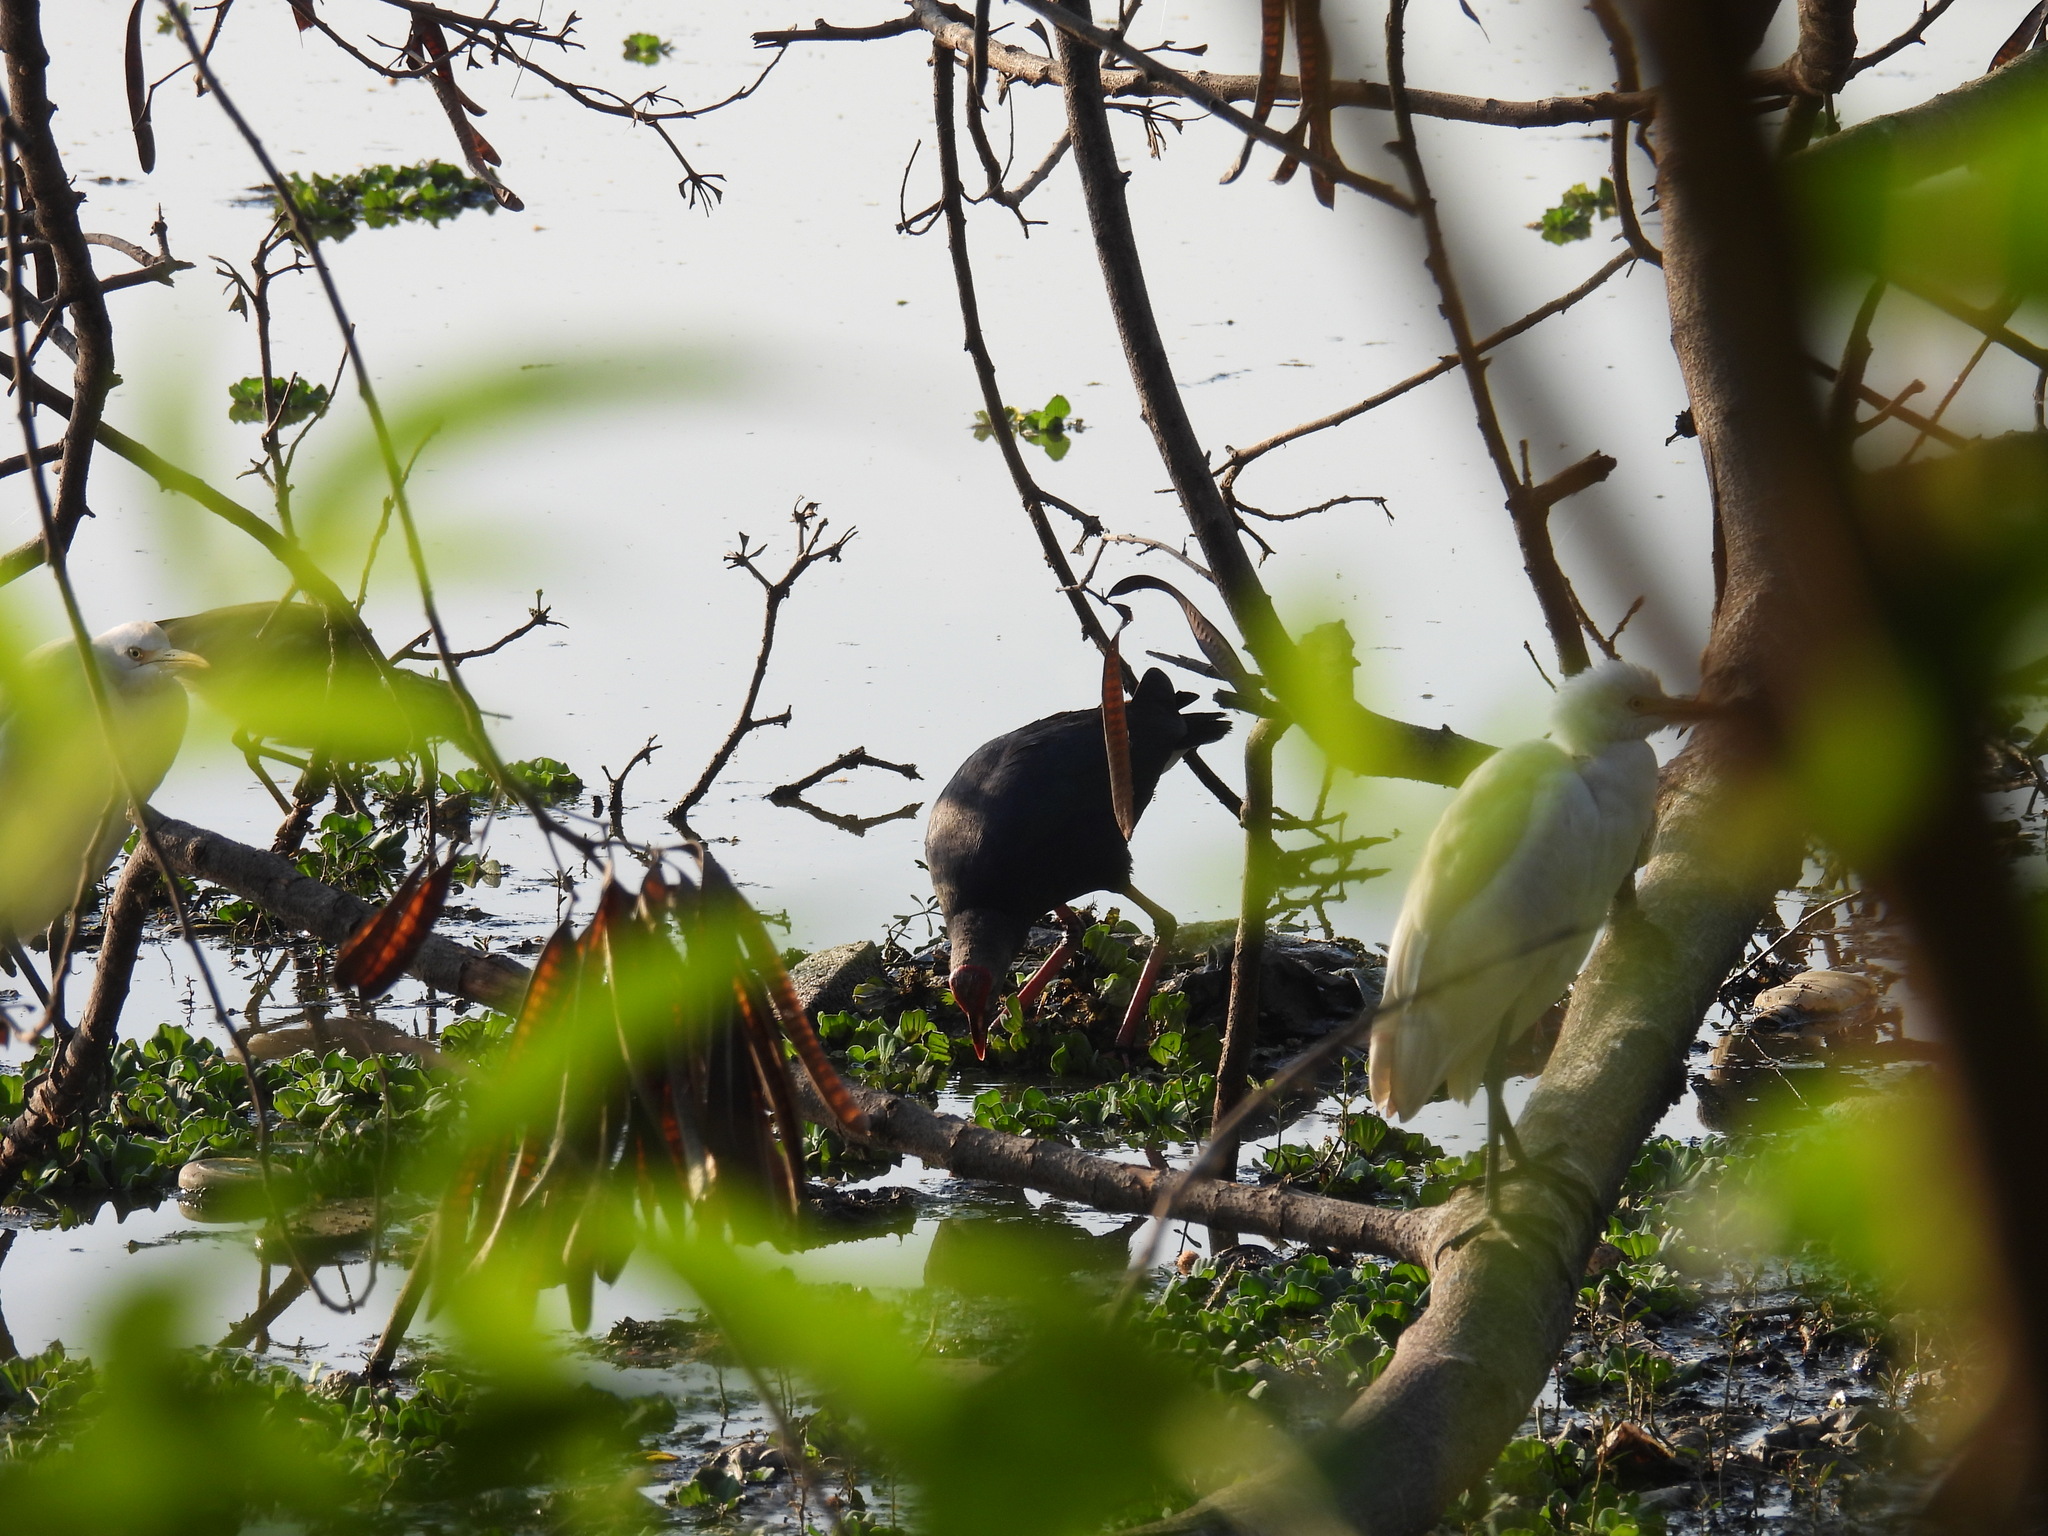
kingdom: Animalia
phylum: Chordata
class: Aves
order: Gruiformes
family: Rallidae
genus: Porphyrio
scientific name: Porphyrio porphyrio
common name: Purple swamphen
